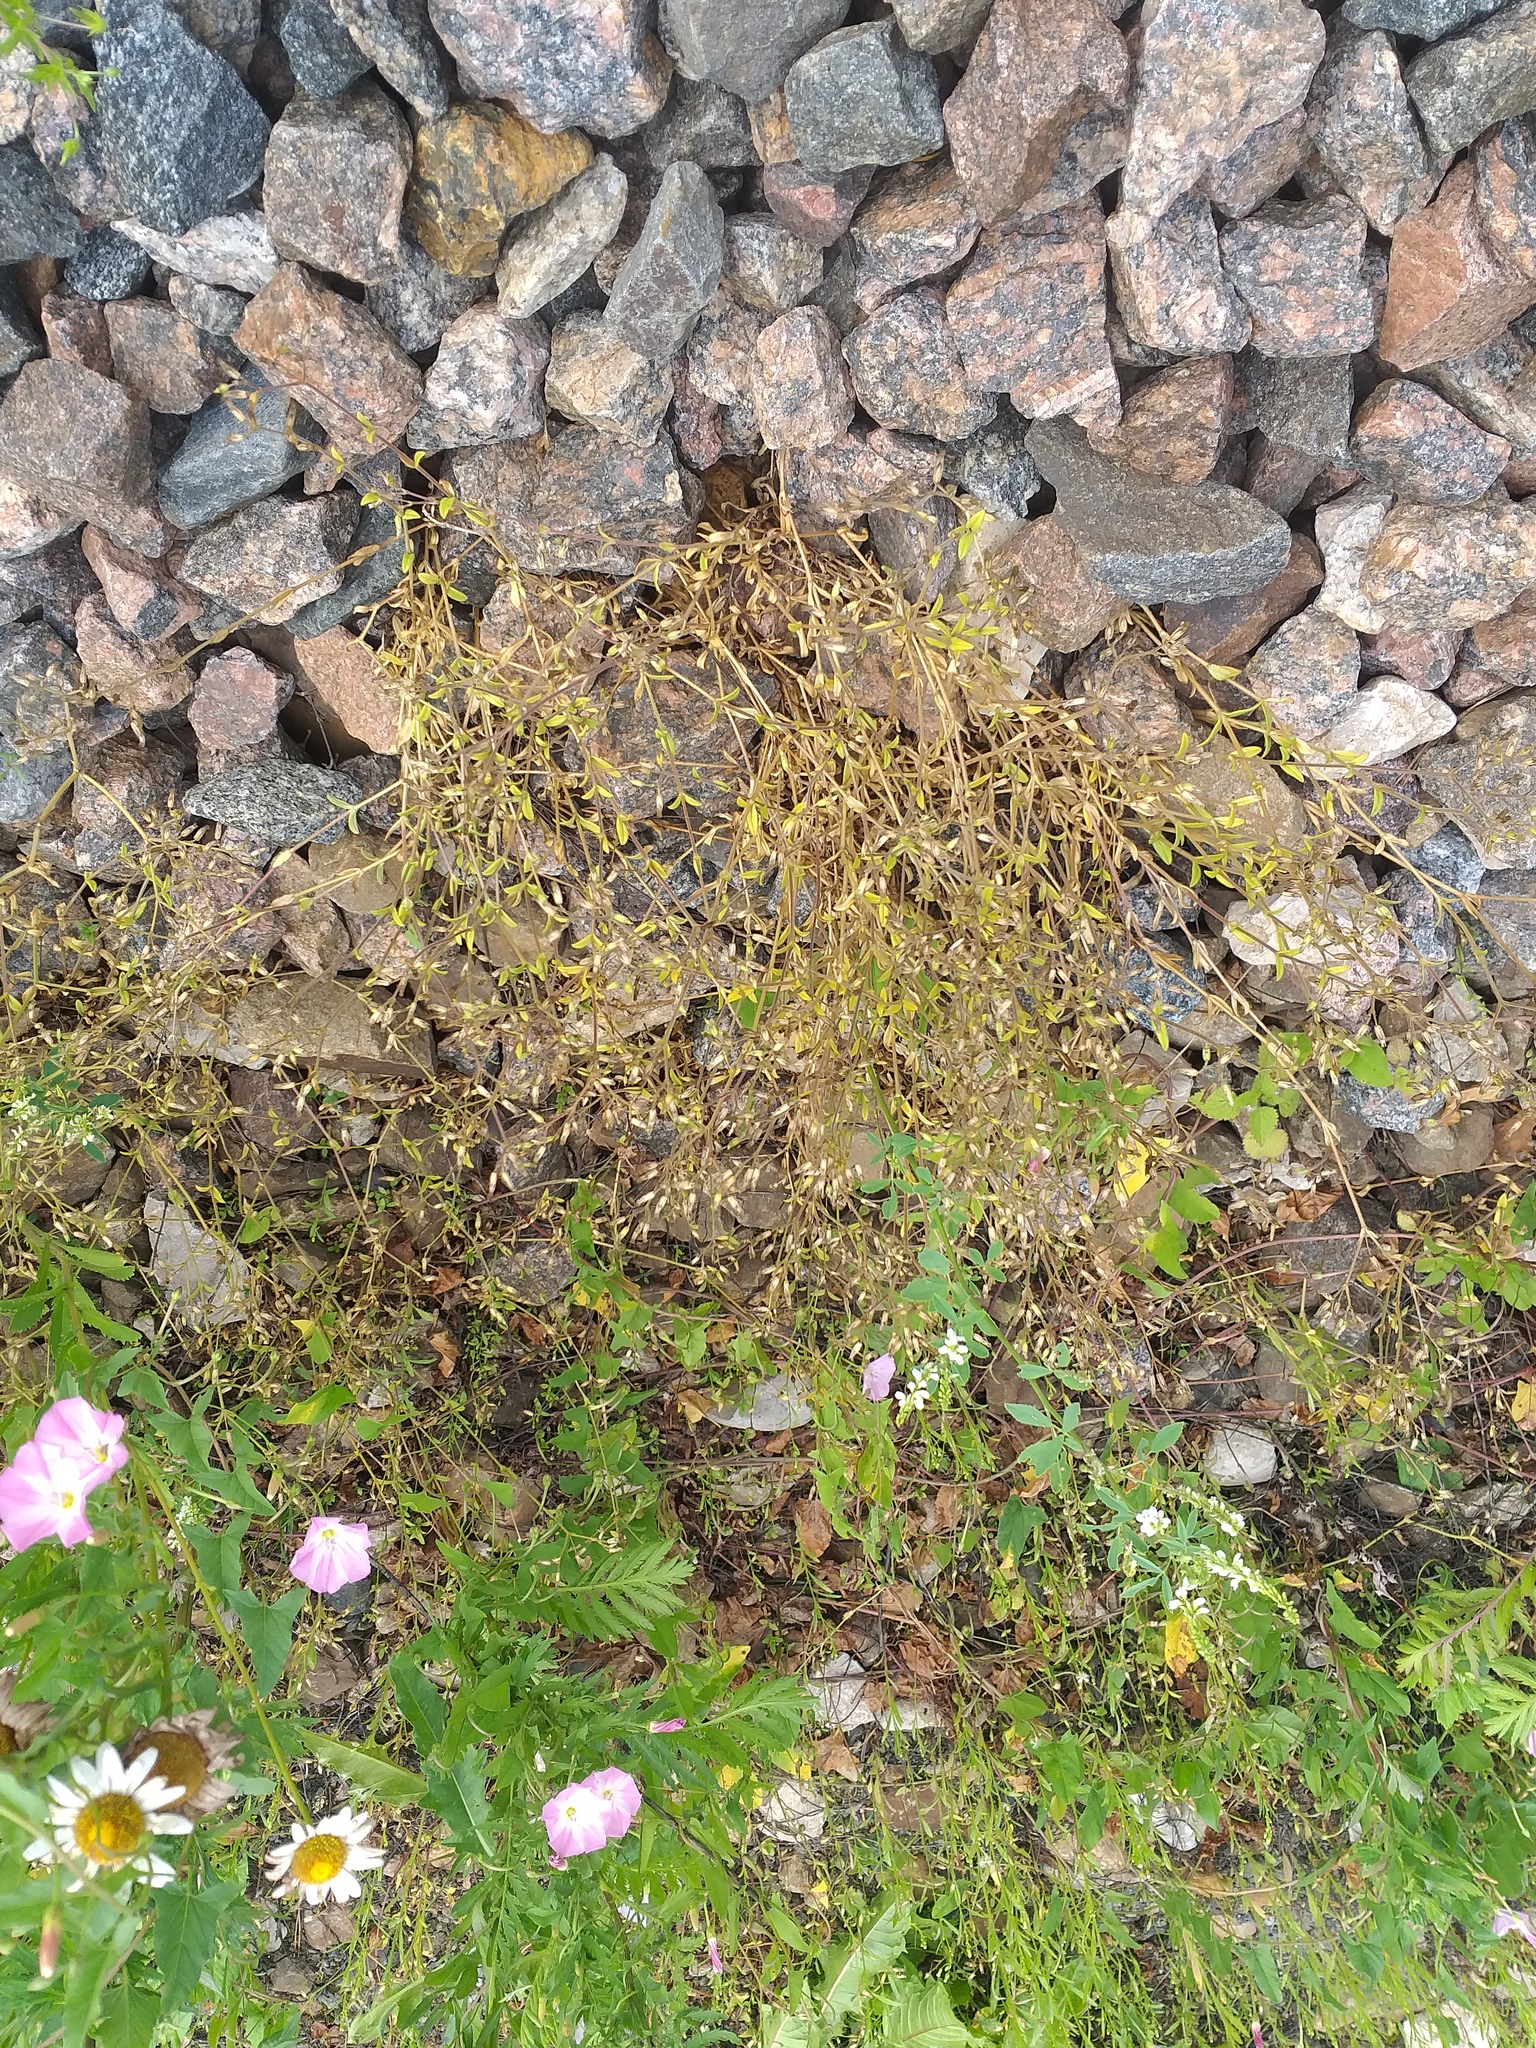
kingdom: Plantae
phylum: Tracheophyta
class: Magnoliopsida
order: Caryophyllales
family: Caryophyllaceae
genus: Cerastium
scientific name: Cerastium holosteoides
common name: Big chickweed
